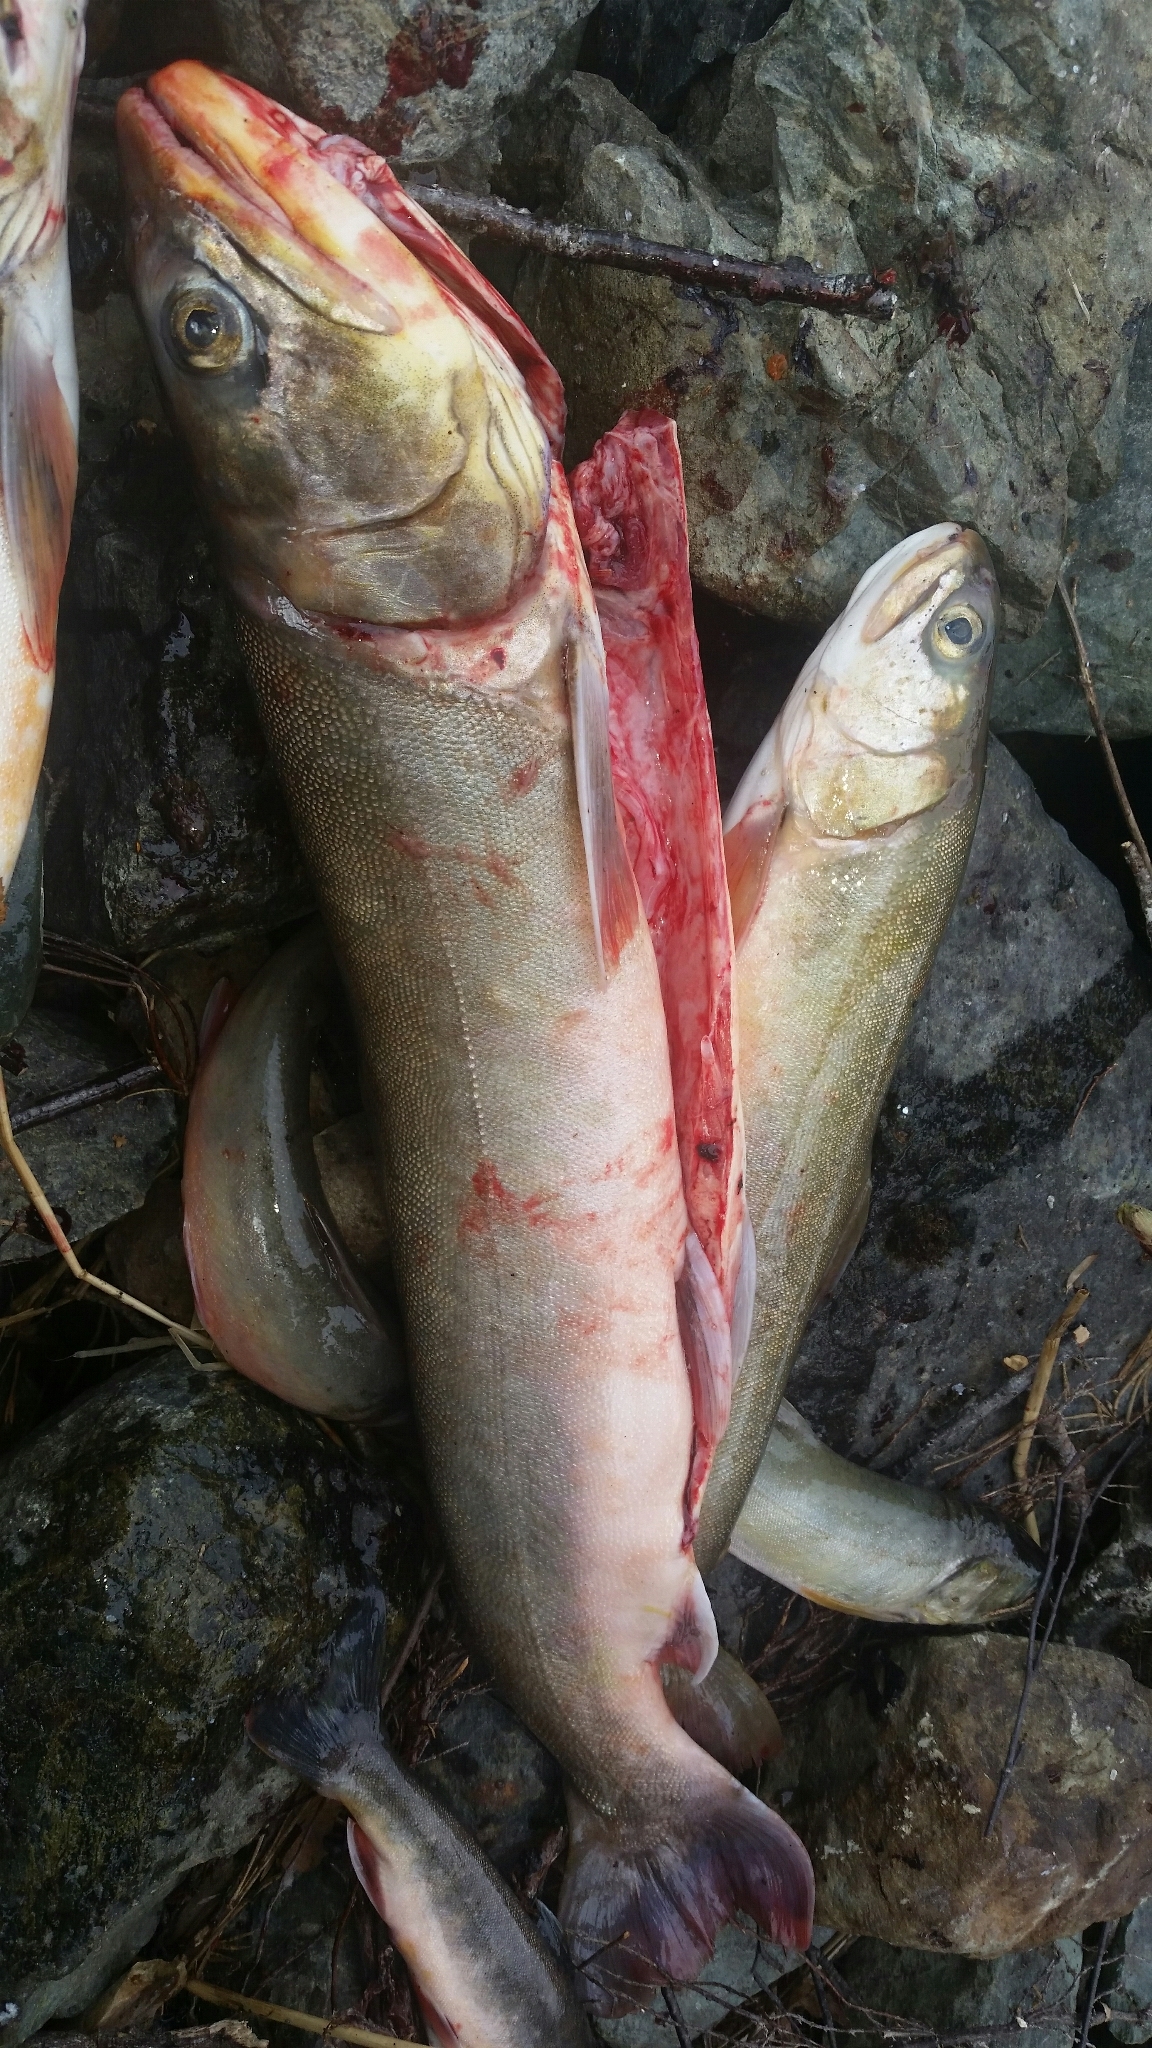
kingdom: Animalia
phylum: Chordata
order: Salmoniformes
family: Salmonidae
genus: Salvelinus
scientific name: Salvelinus alpinus
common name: Charr
